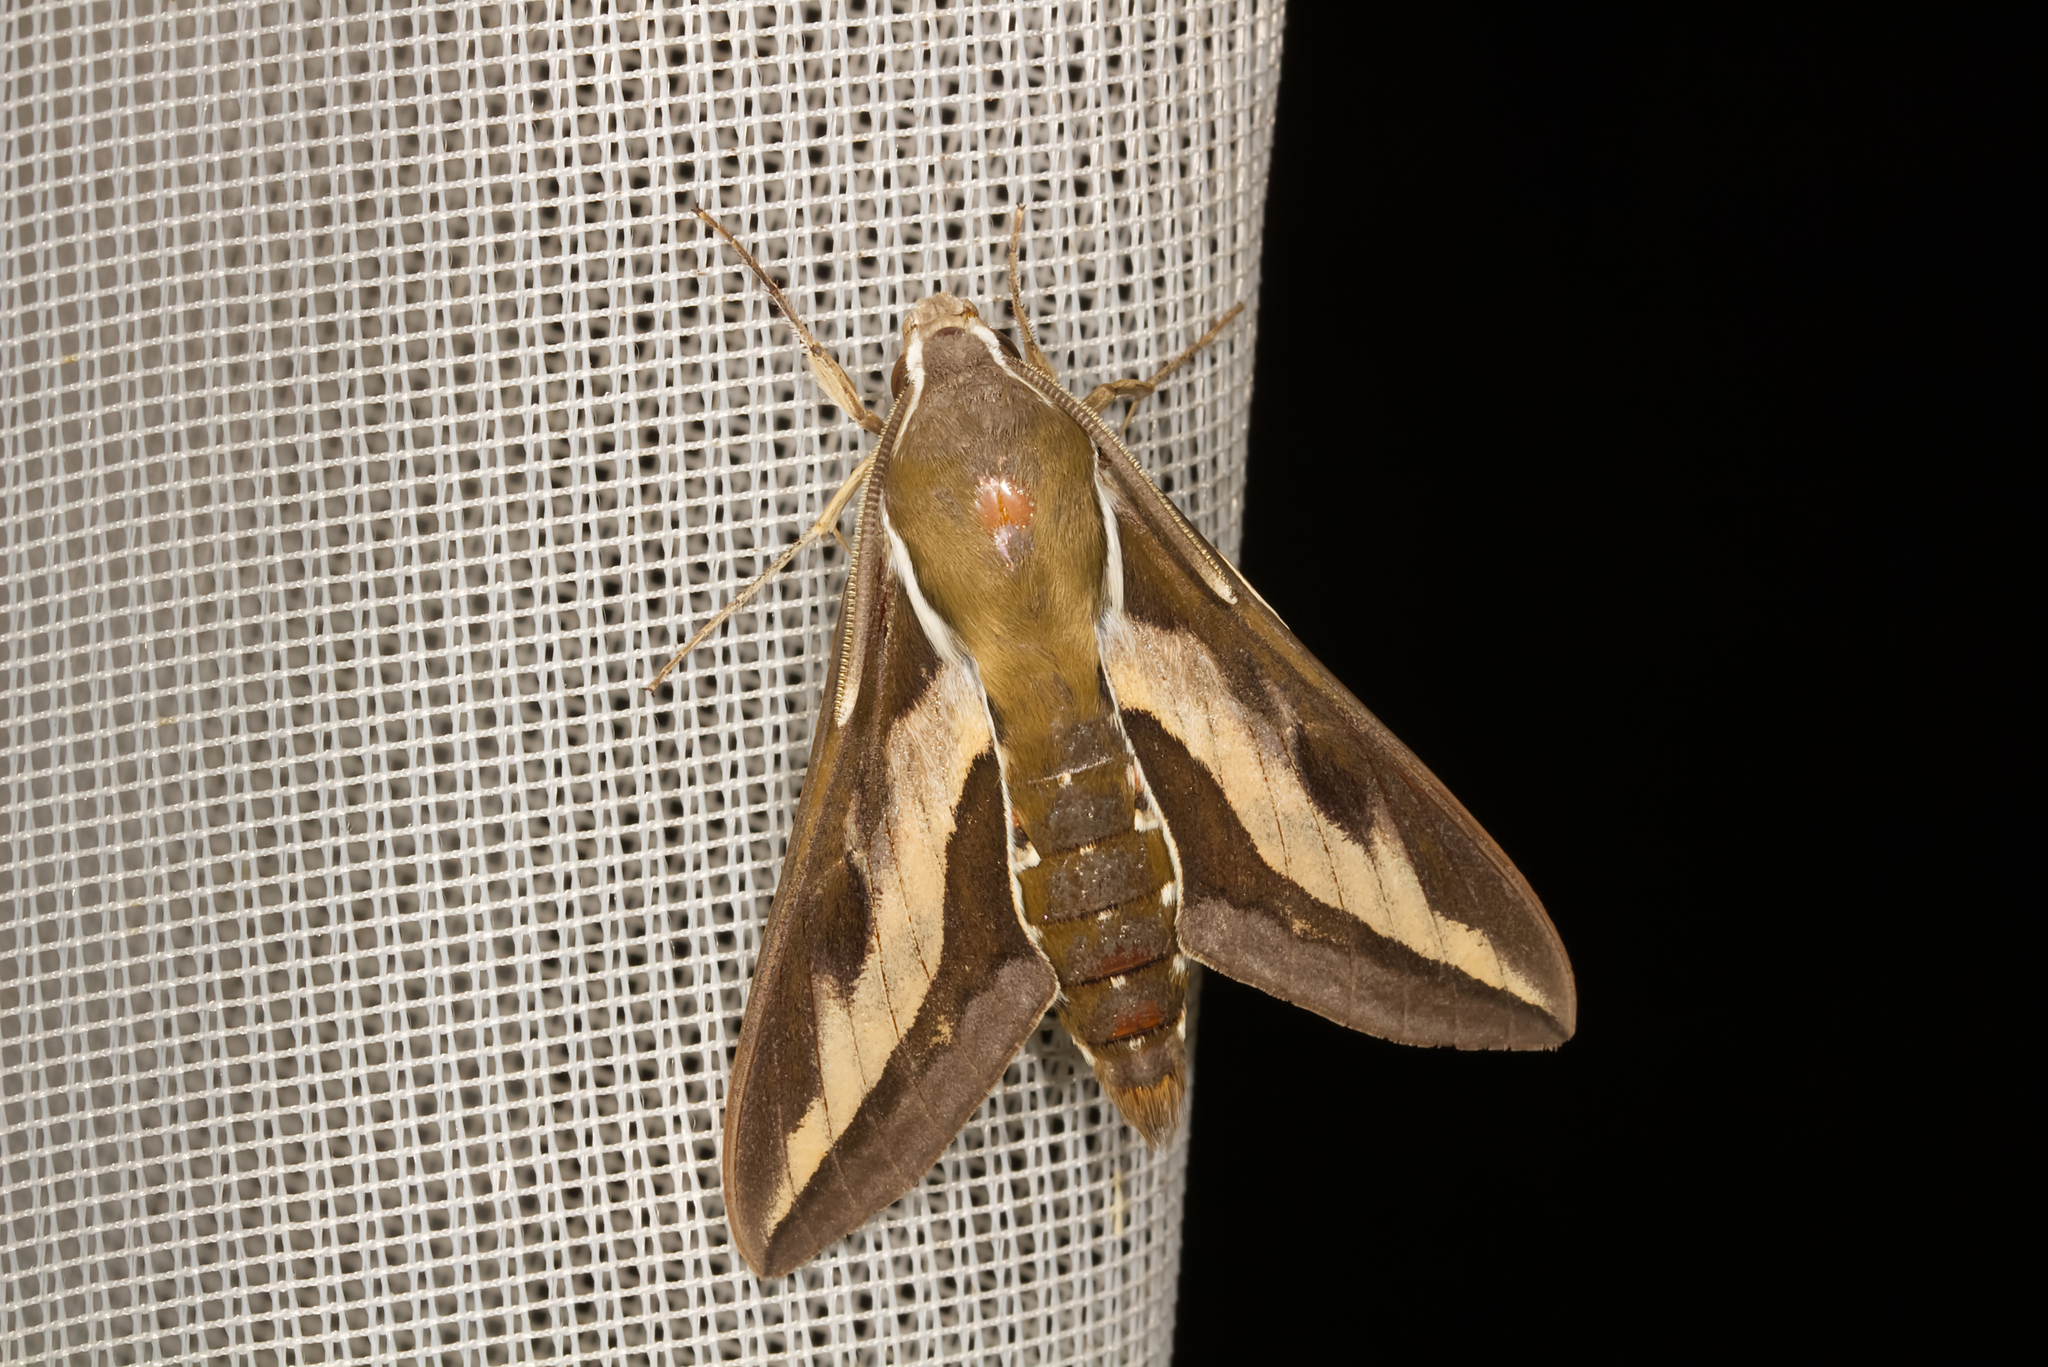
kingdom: Animalia
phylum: Arthropoda
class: Insecta
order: Lepidoptera
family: Sphingidae
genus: Hyles
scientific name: Hyles gallii
